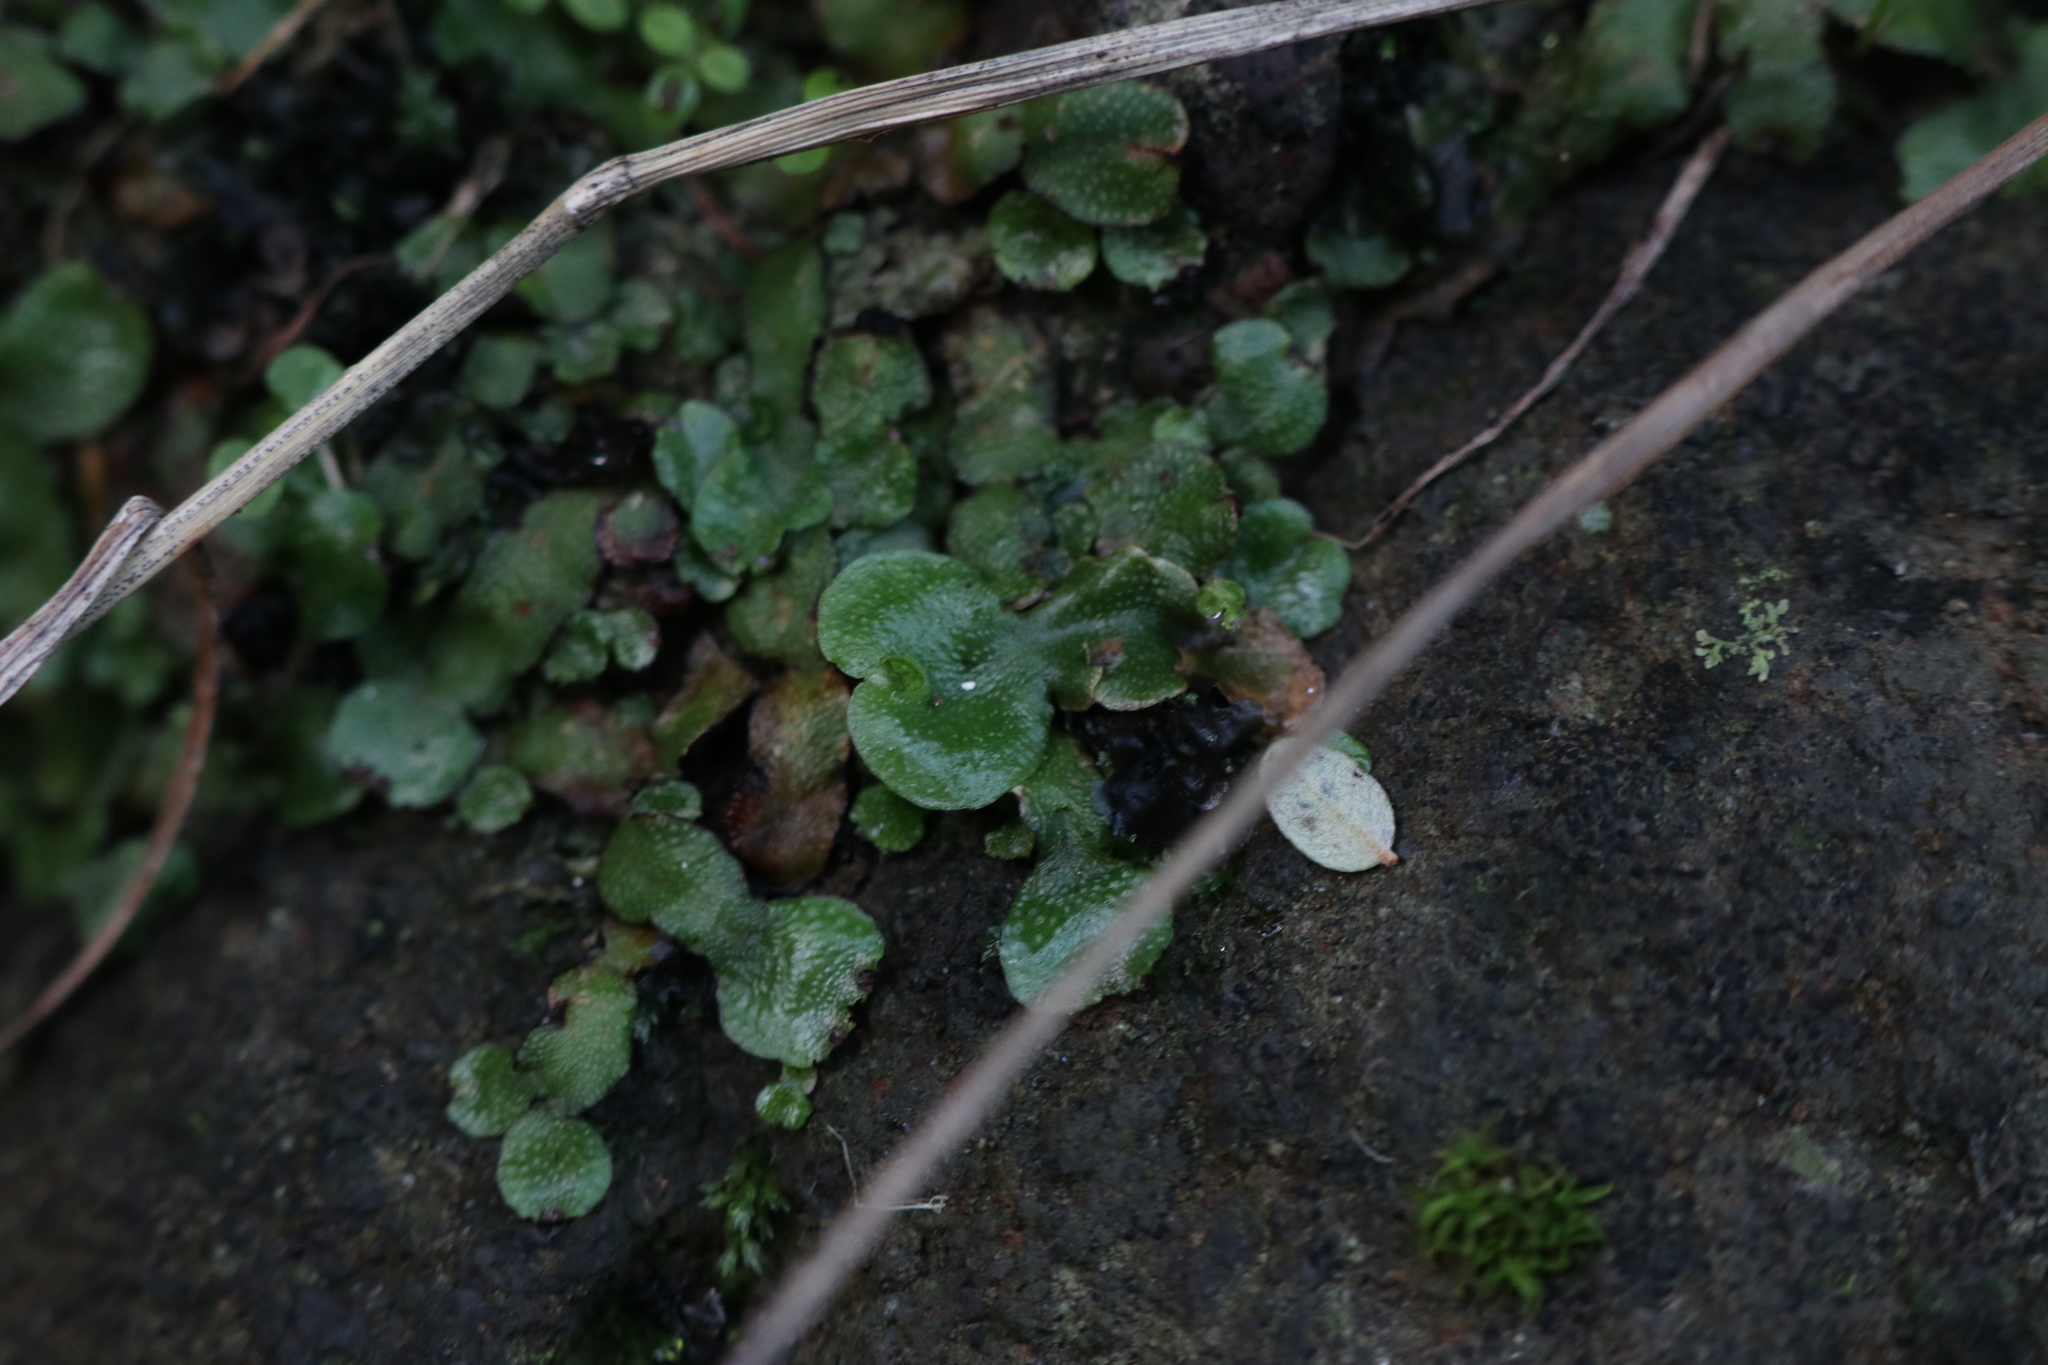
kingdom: Plantae
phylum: Marchantiophyta
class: Marchantiopsida
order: Lunulariales
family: Lunulariaceae
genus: Lunularia
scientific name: Lunularia cruciata
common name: Crescent-cup liverwort
